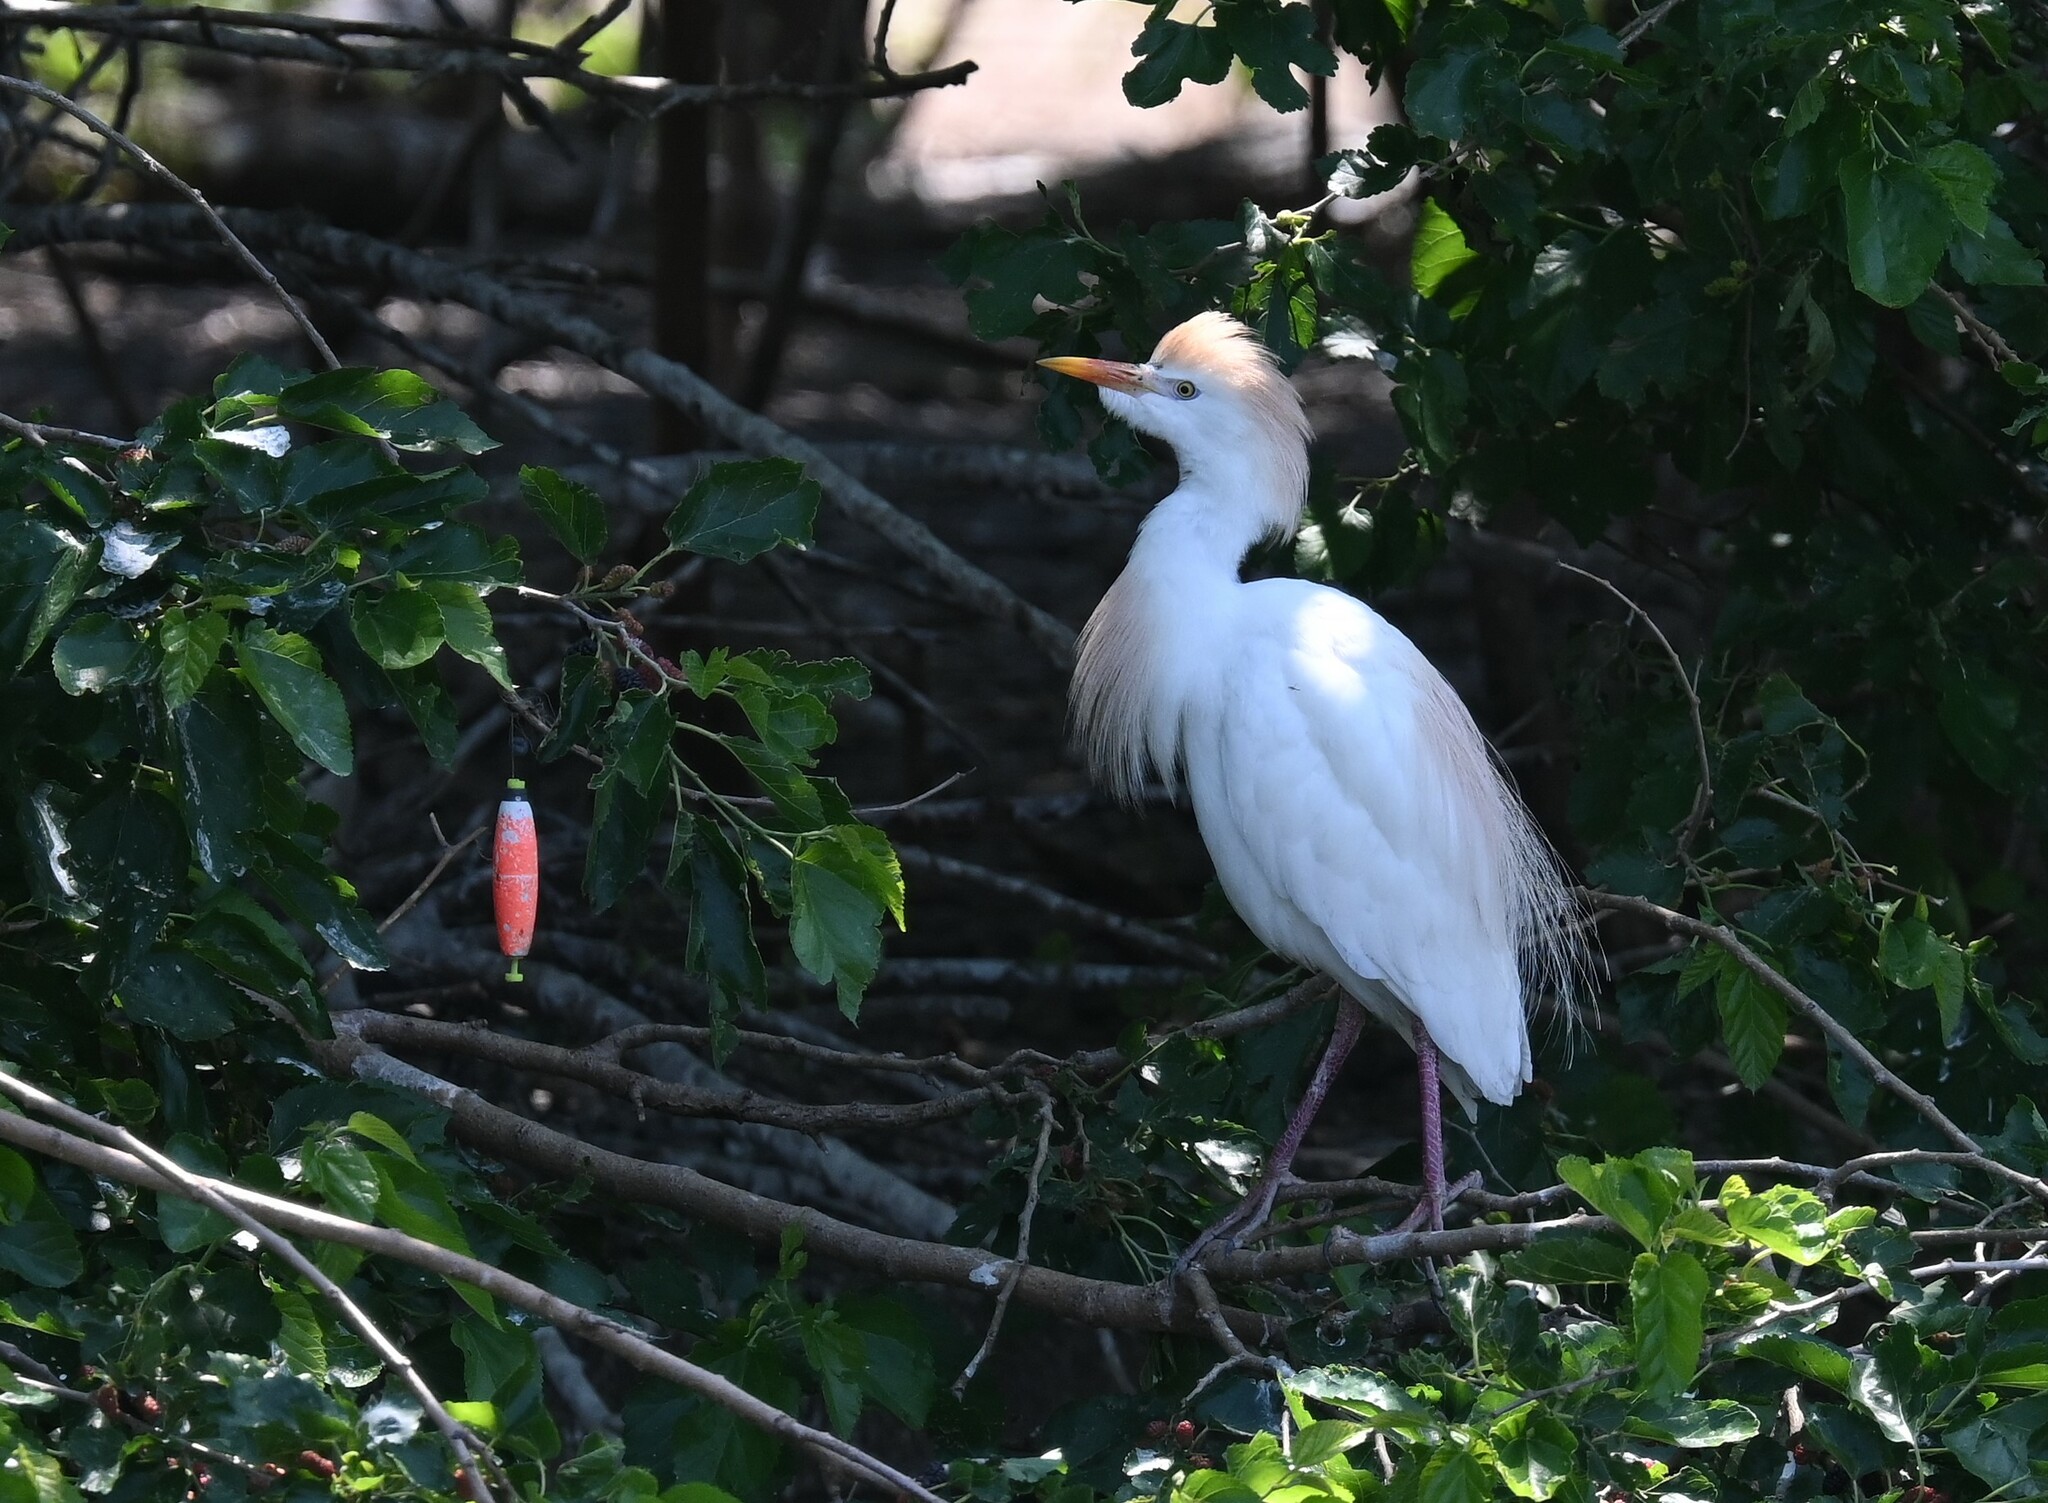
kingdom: Animalia
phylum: Chordata
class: Aves
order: Pelecaniformes
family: Ardeidae
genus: Bubulcus
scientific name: Bubulcus ibis
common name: Cattle egret
